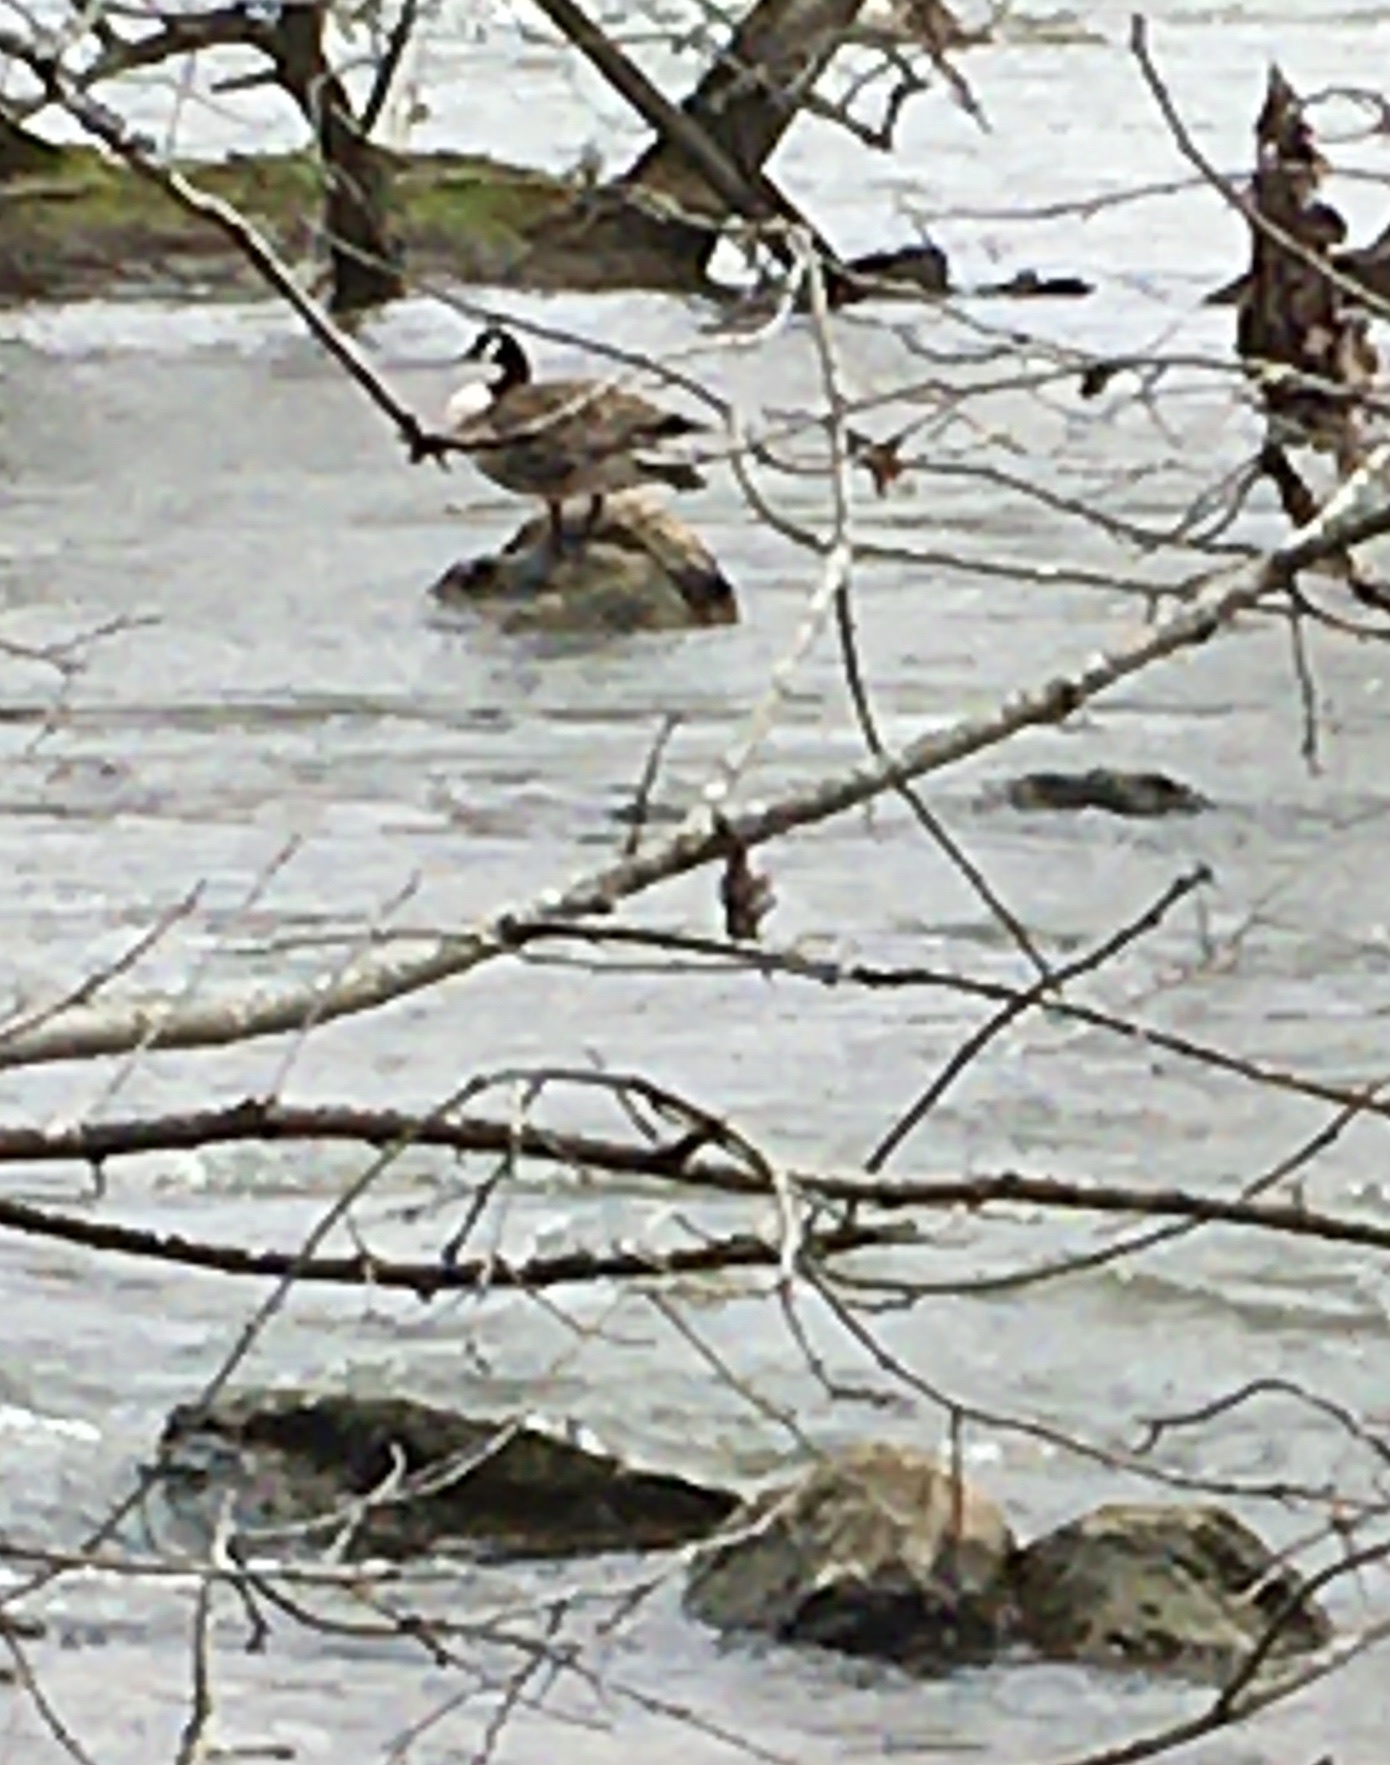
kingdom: Animalia
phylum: Chordata
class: Aves
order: Anseriformes
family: Anatidae
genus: Branta
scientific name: Branta canadensis
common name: Canada goose
